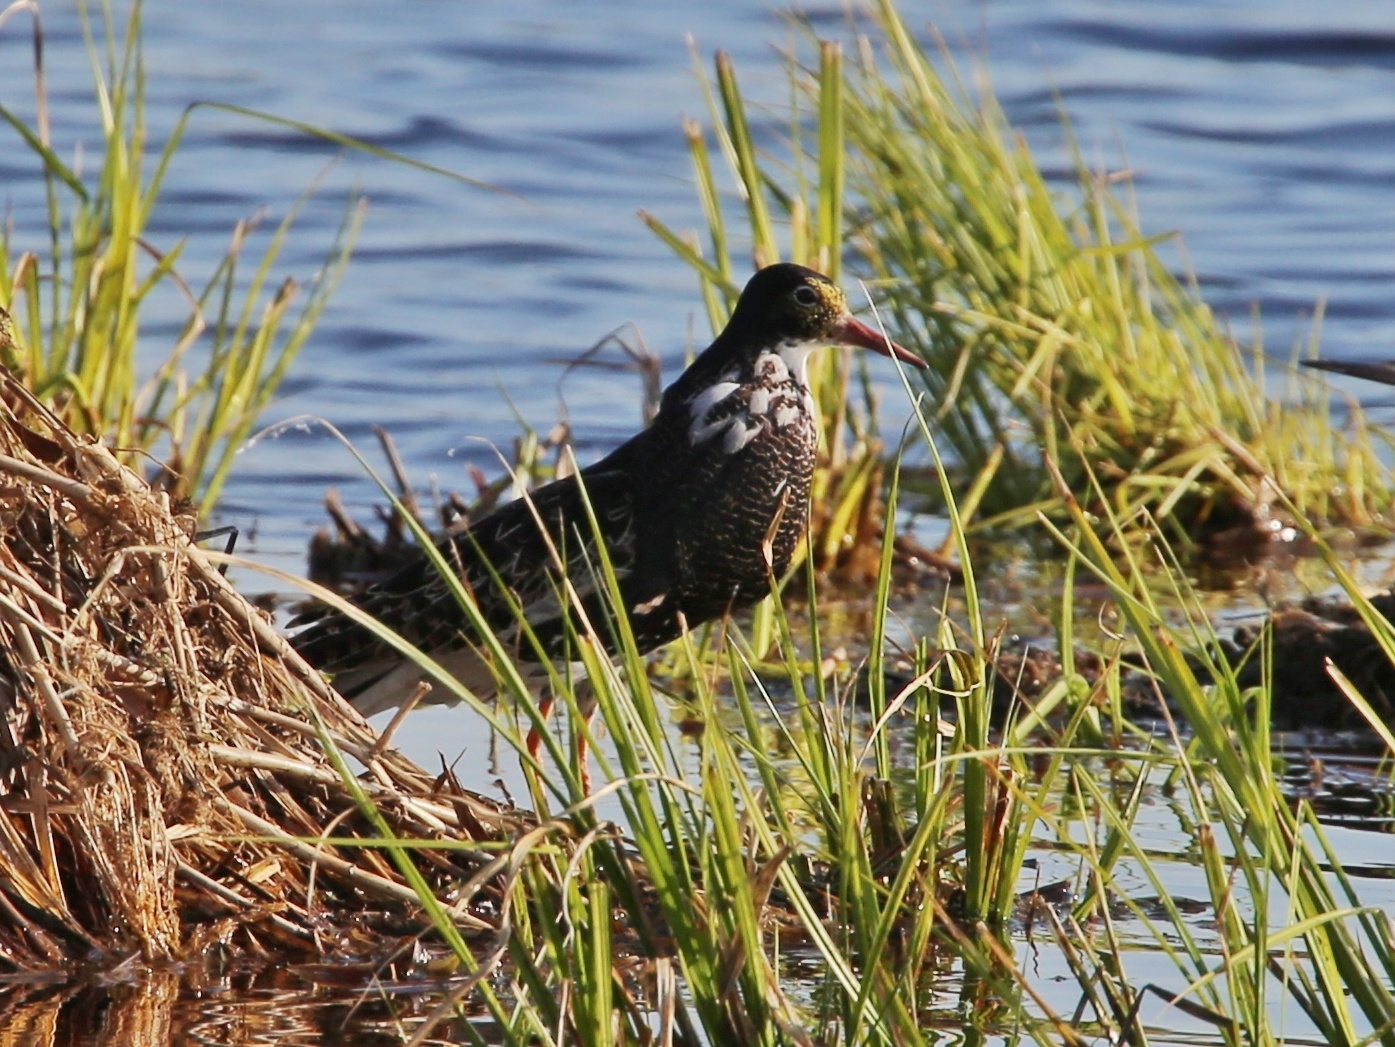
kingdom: Animalia
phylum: Chordata
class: Aves
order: Charadriiformes
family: Scolopacidae
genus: Calidris
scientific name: Calidris pugnax
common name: Ruff
